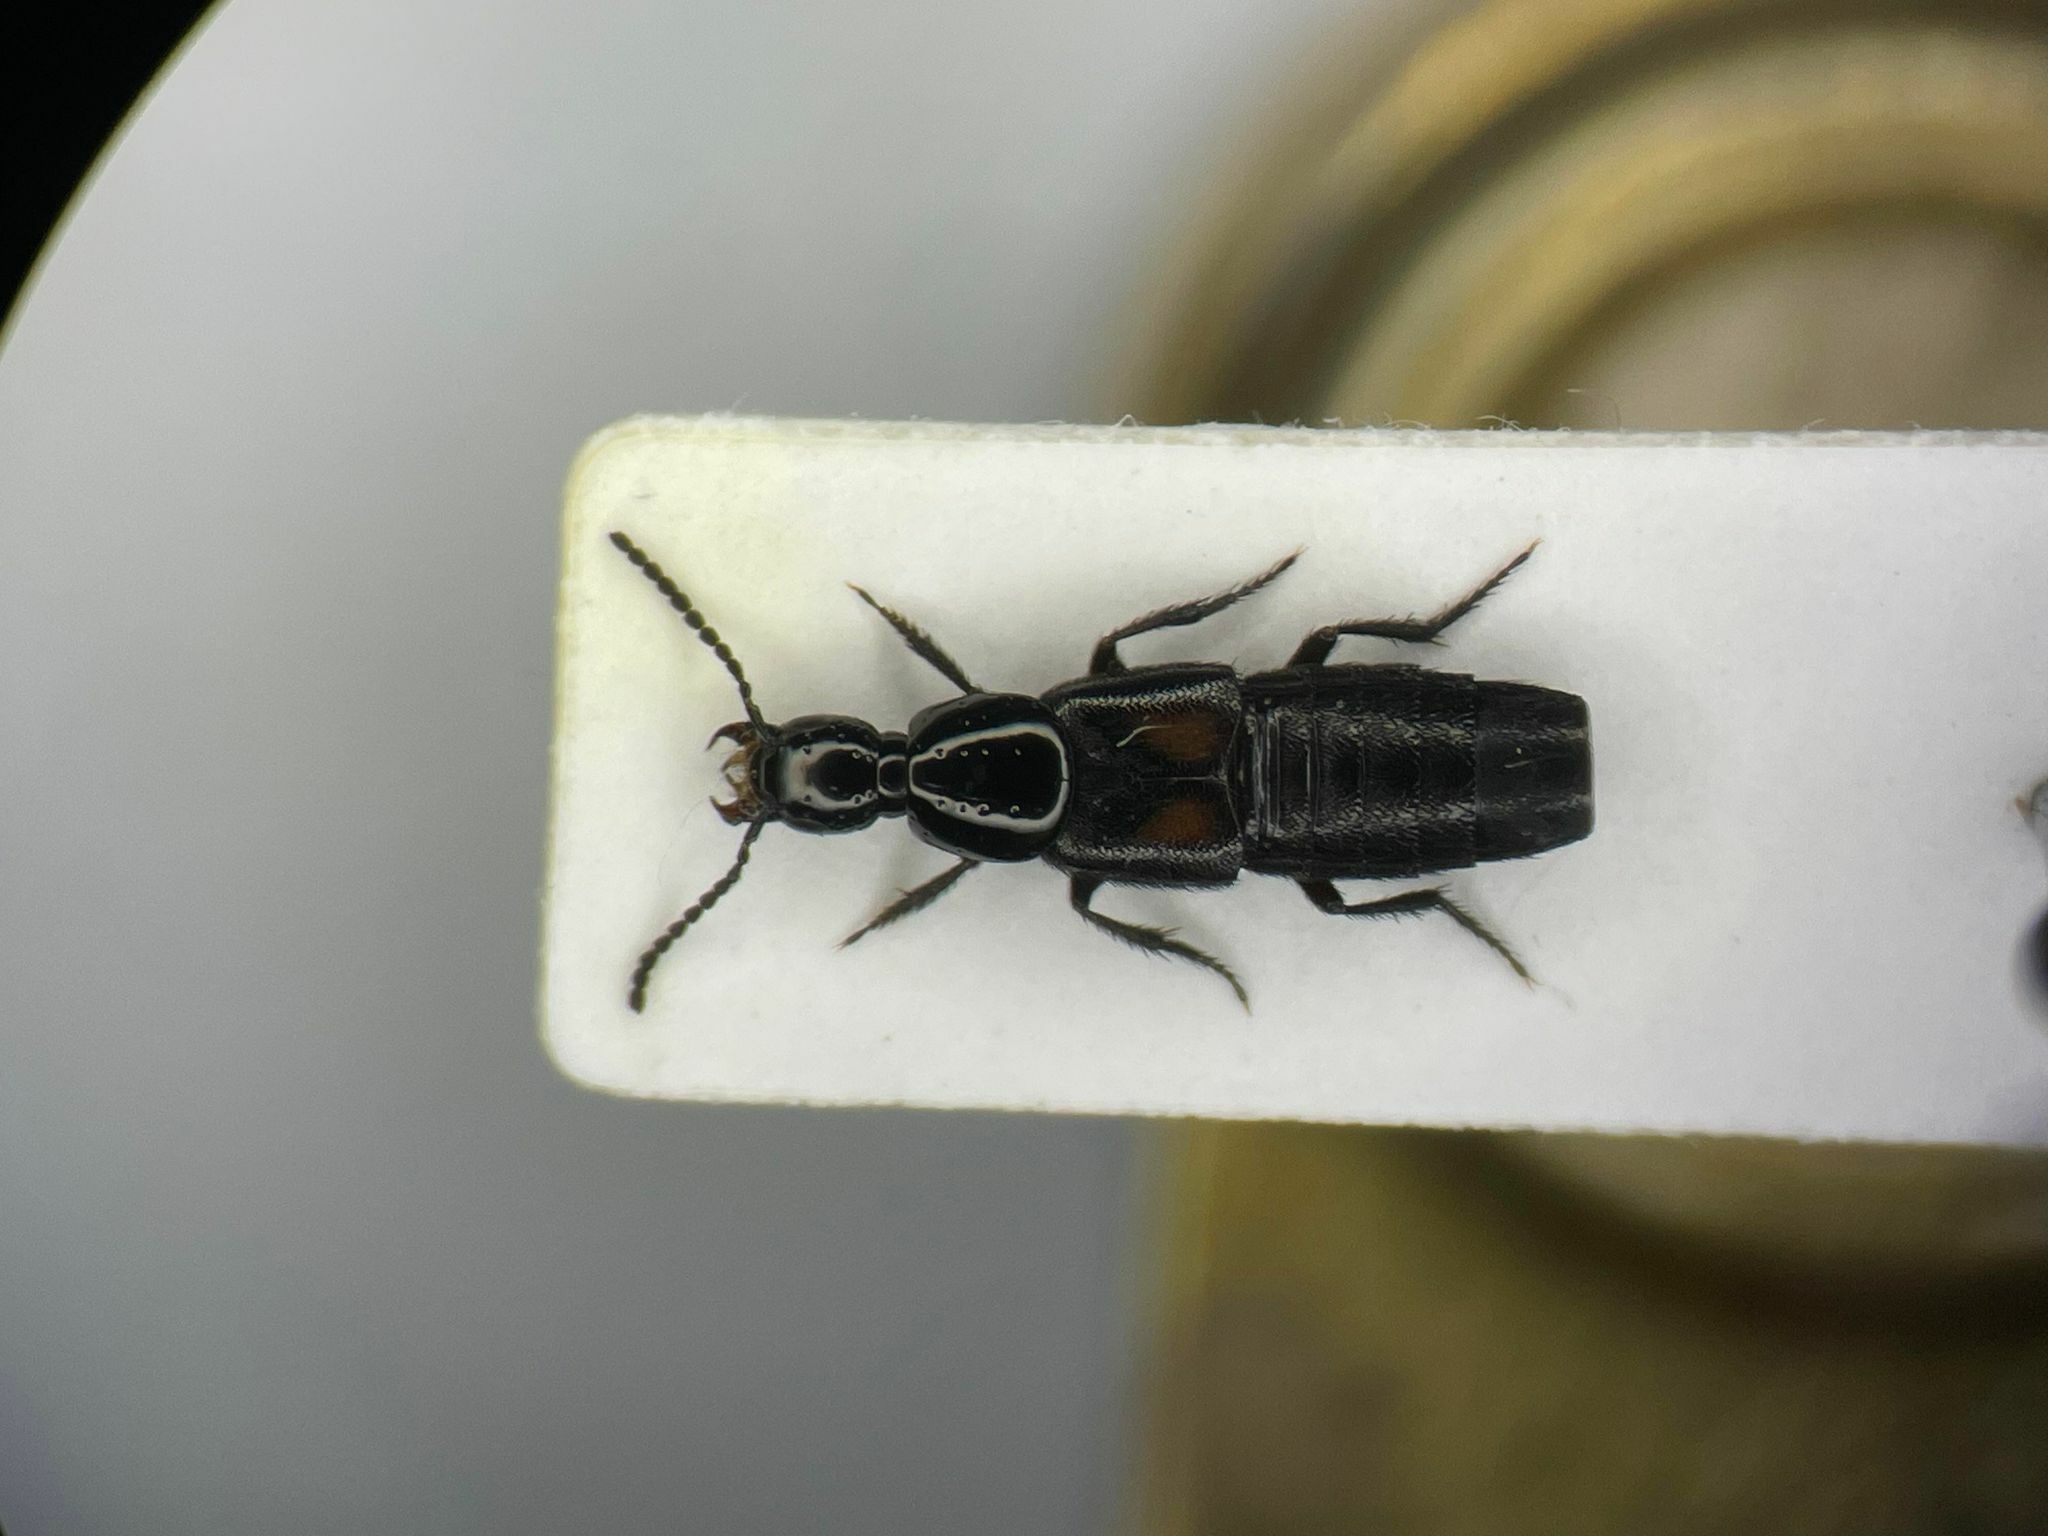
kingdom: Animalia
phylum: Arthropoda
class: Insecta
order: Coleoptera
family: Staphylinidae
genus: Philonthus
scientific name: Philonthus cruentatus
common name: Beetle
